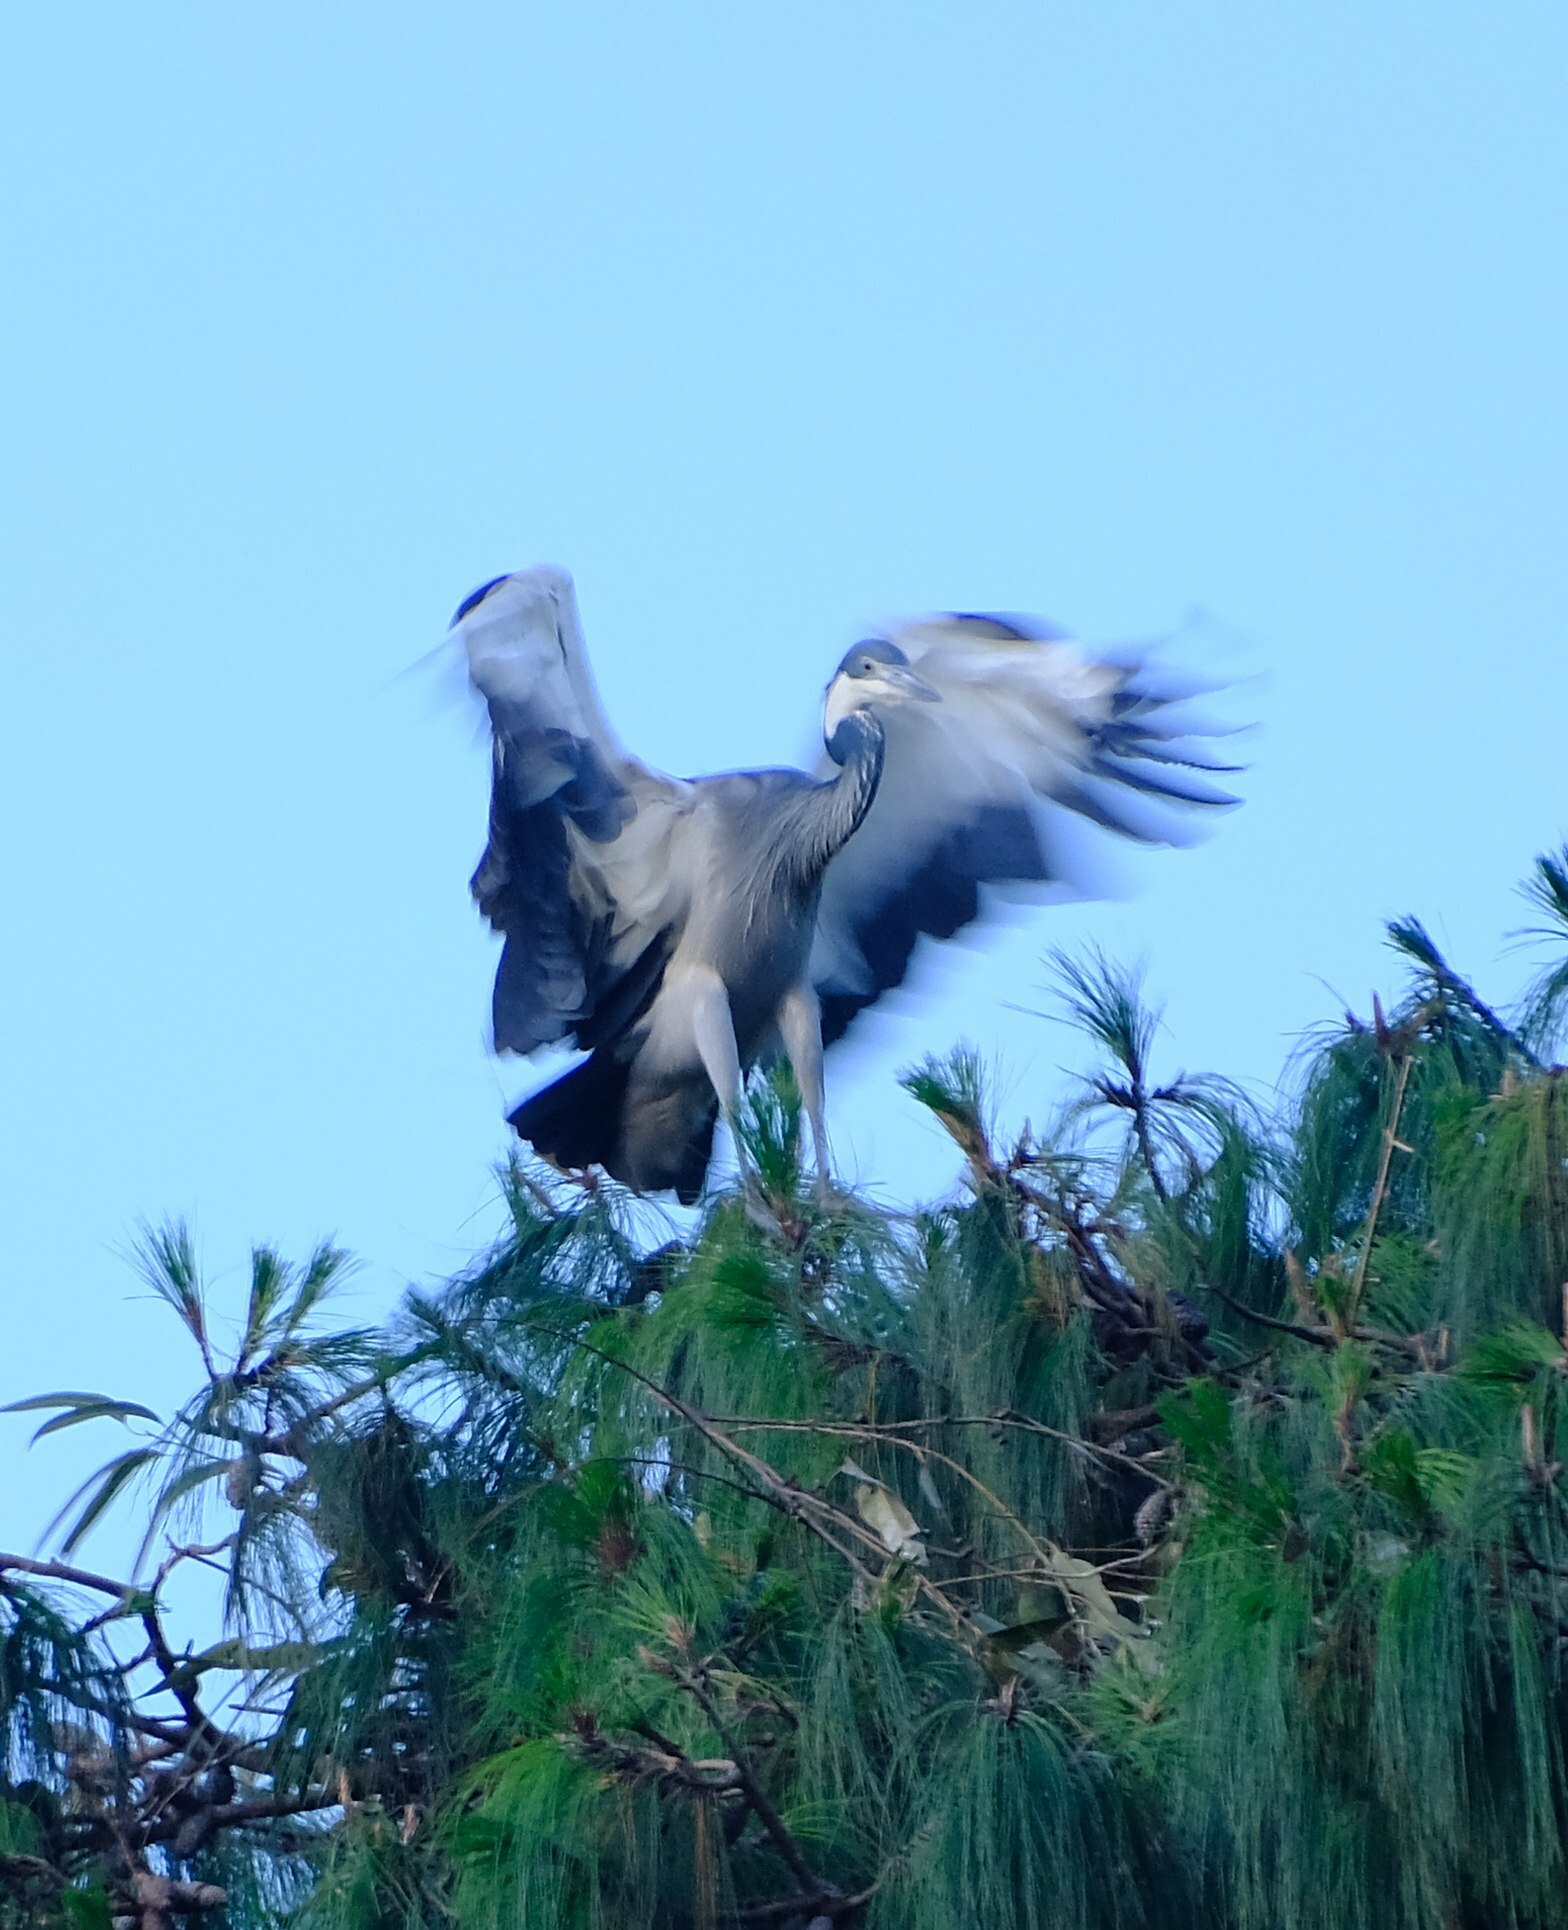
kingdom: Animalia
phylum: Chordata
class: Aves
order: Pelecaniformes
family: Ardeidae
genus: Ardea
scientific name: Ardea melanocephala
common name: Black-headed heron
